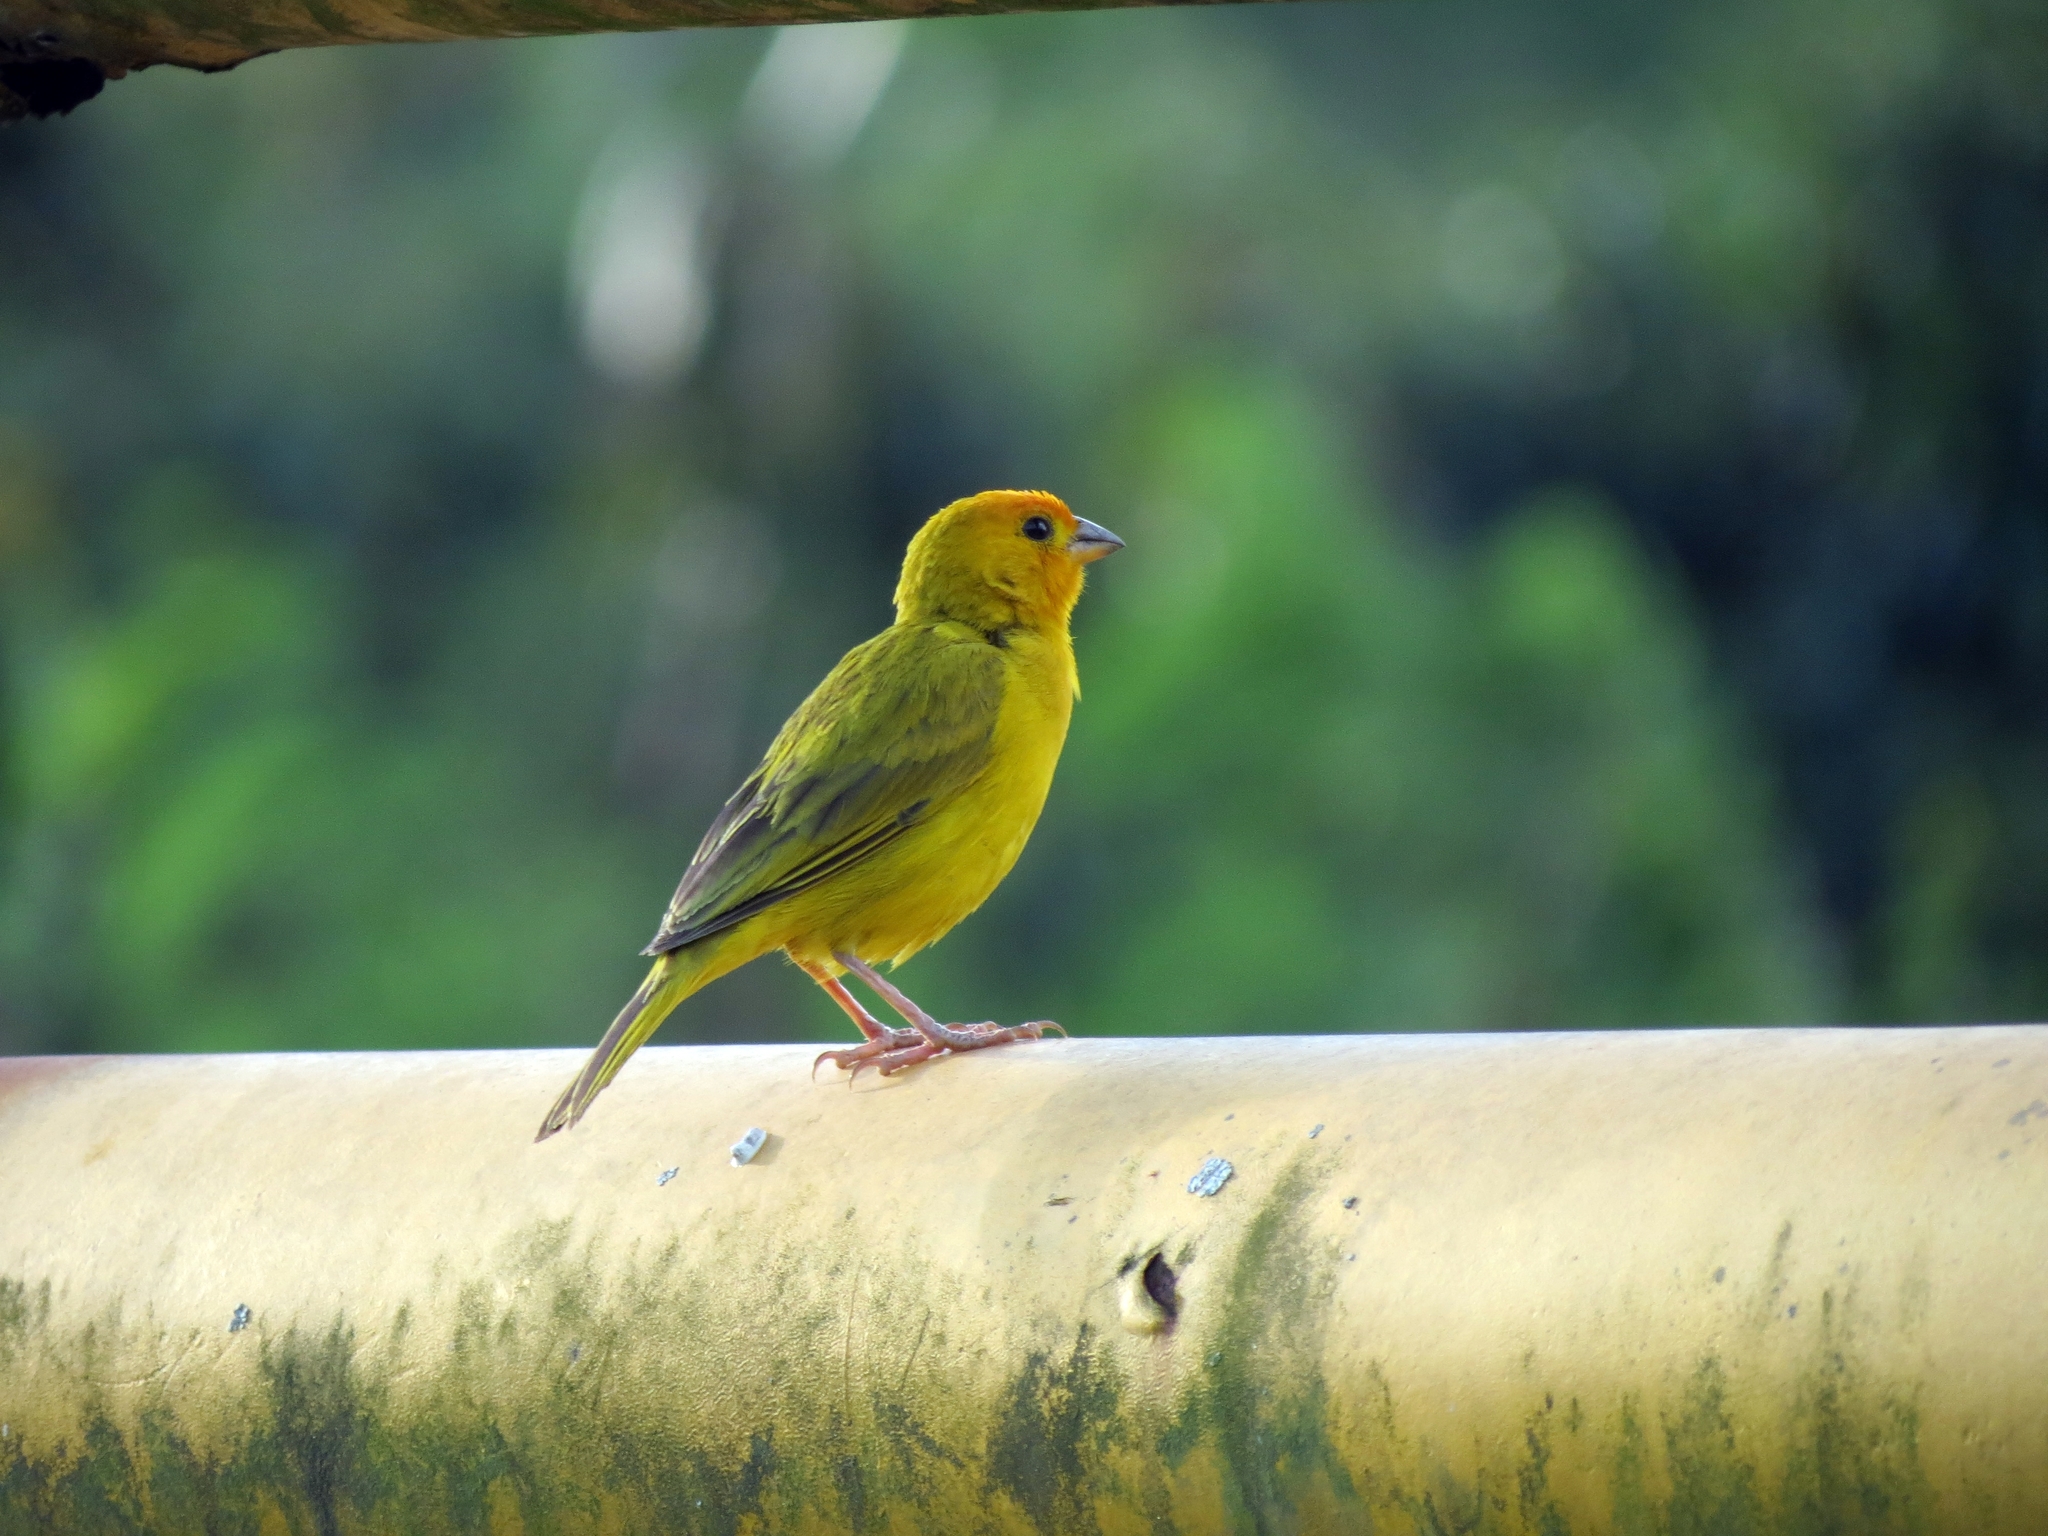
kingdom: Animalia
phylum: Chordata
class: Aves
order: Passeriformes
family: Thraupidae
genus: Sicalis
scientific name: Sicalis flaveola
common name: Saffron finch
